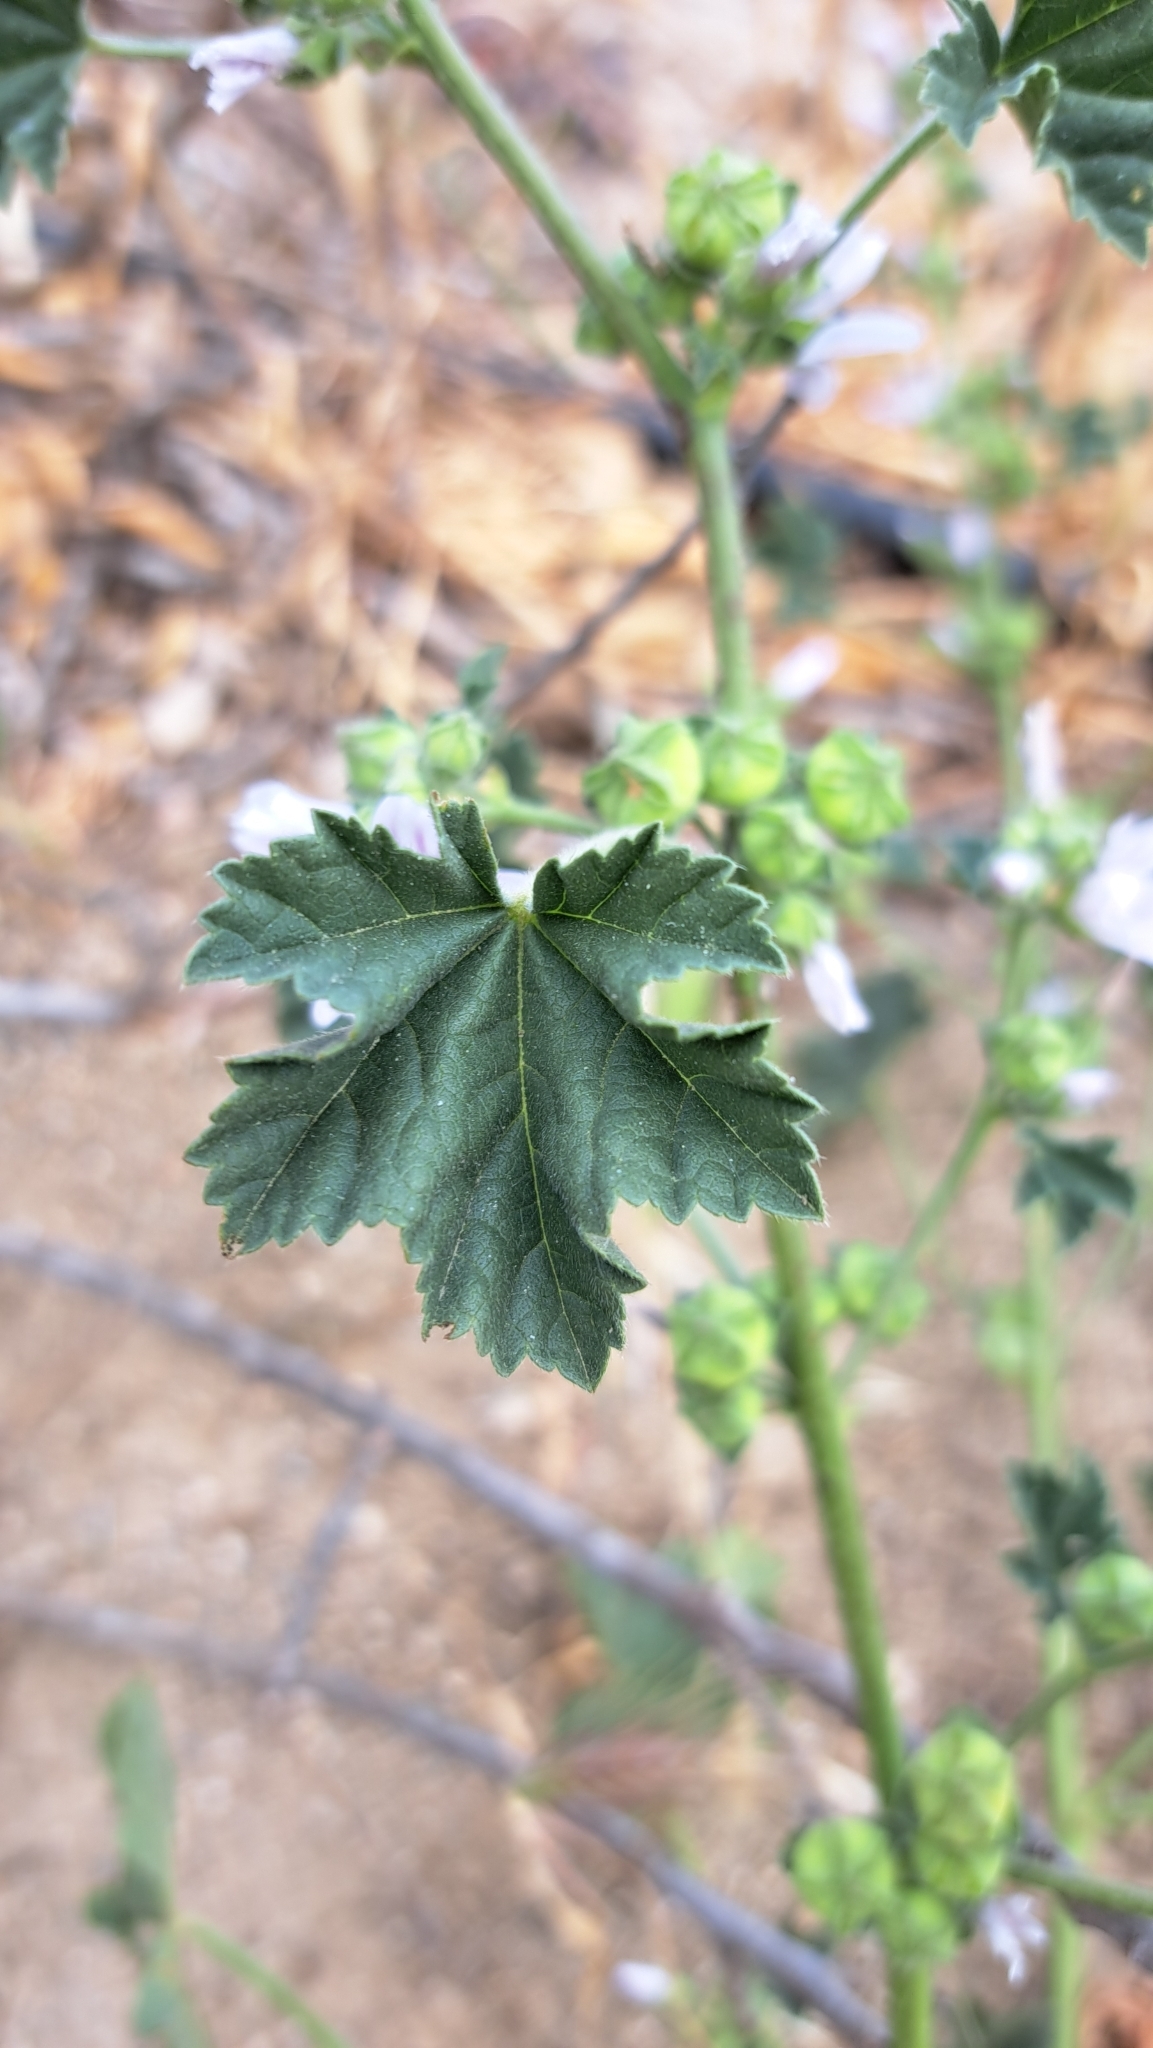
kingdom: Plantae
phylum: Tracheophyta
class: Magnoliopsida
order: Malvales
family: Malvaceae
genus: Malva
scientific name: Malva multiflora
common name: Cheeseweed
